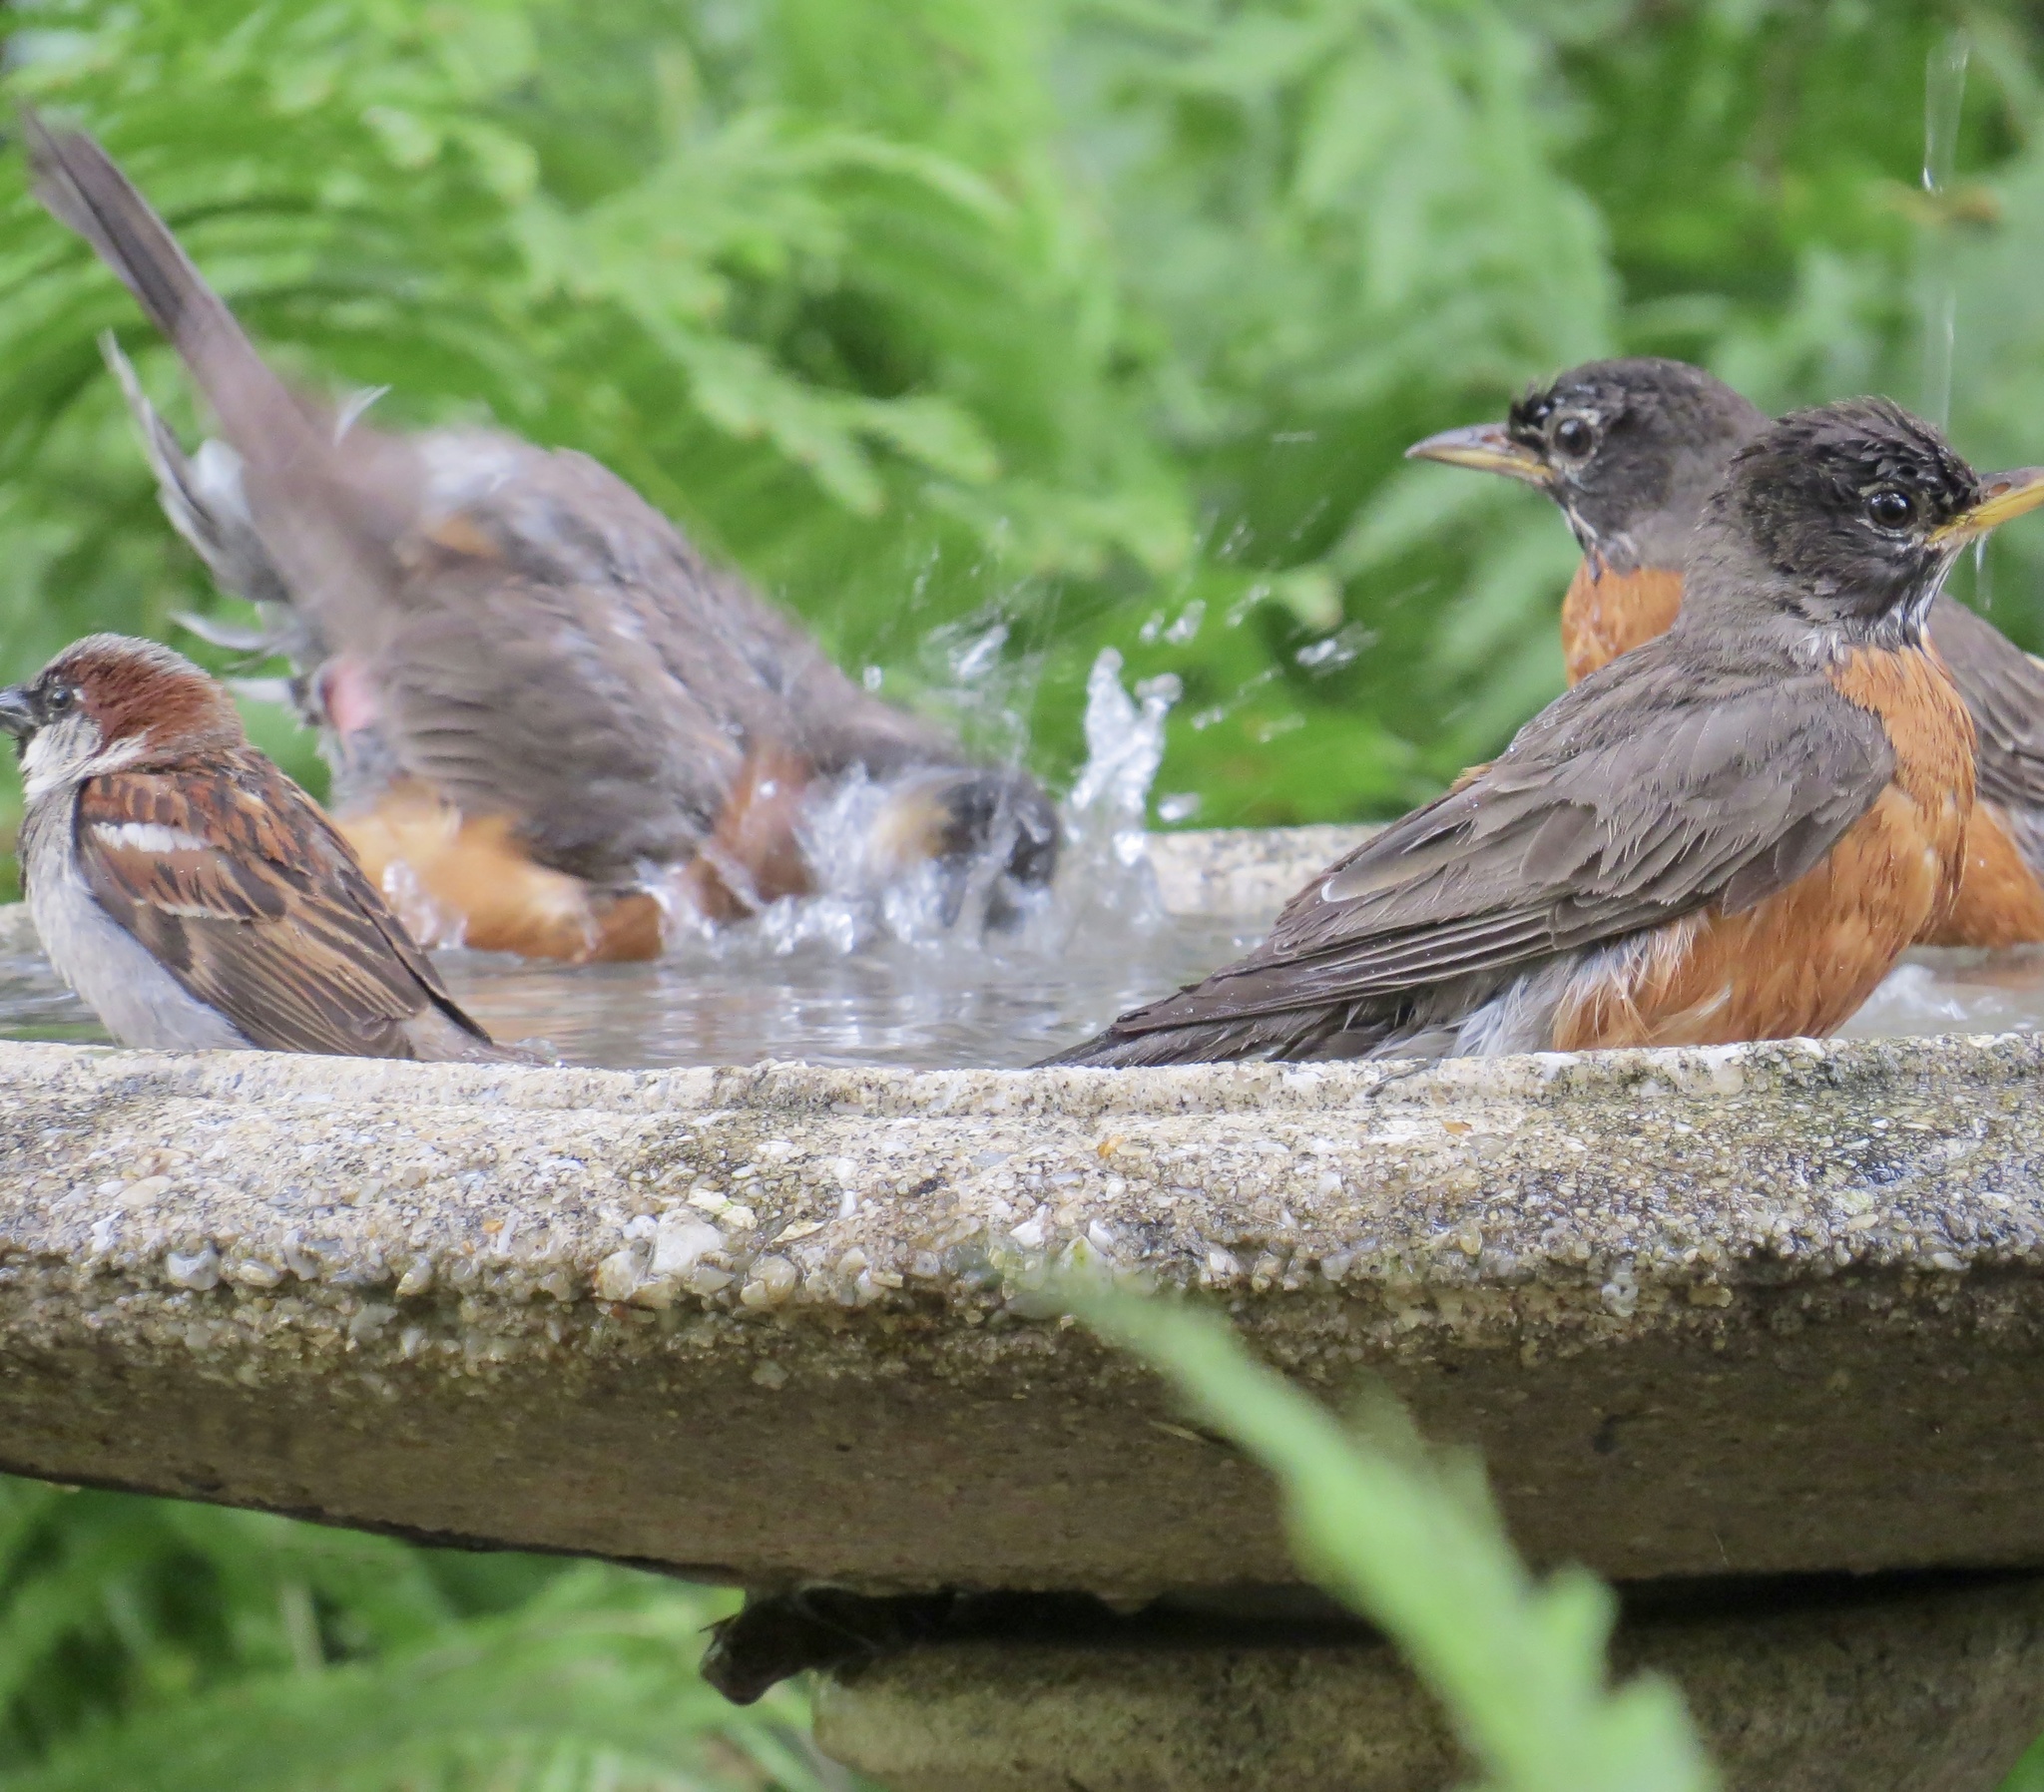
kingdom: Animalia
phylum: Chordata
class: Aves
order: Passeriformes
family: Turdidae
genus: Turdus
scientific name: Turdus migratorius
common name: American robin
